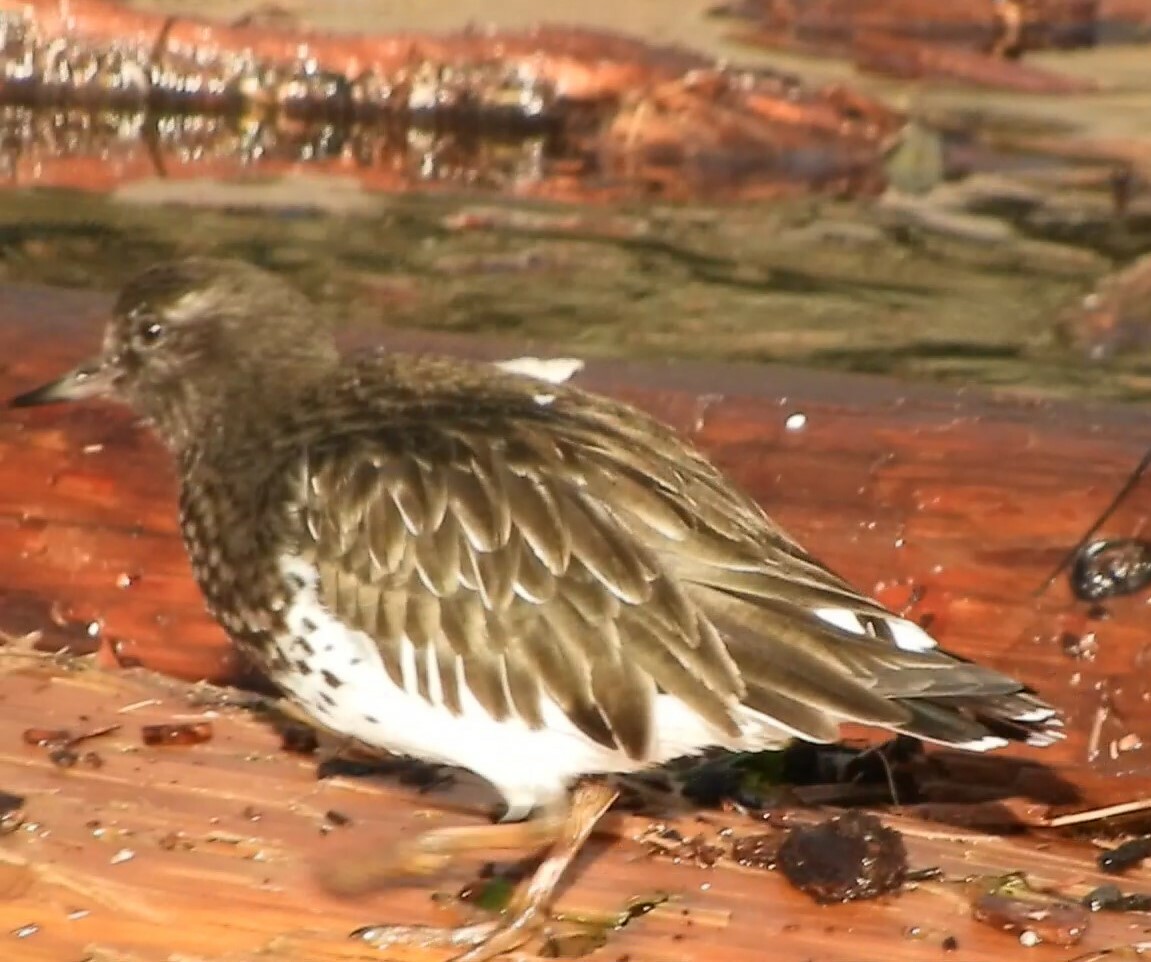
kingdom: Animalia
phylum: Chordata
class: Aves
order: Charadriiformes
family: Scolopacidae
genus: Arenaria
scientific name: Arenaria melanocephala
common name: Black turnstone
